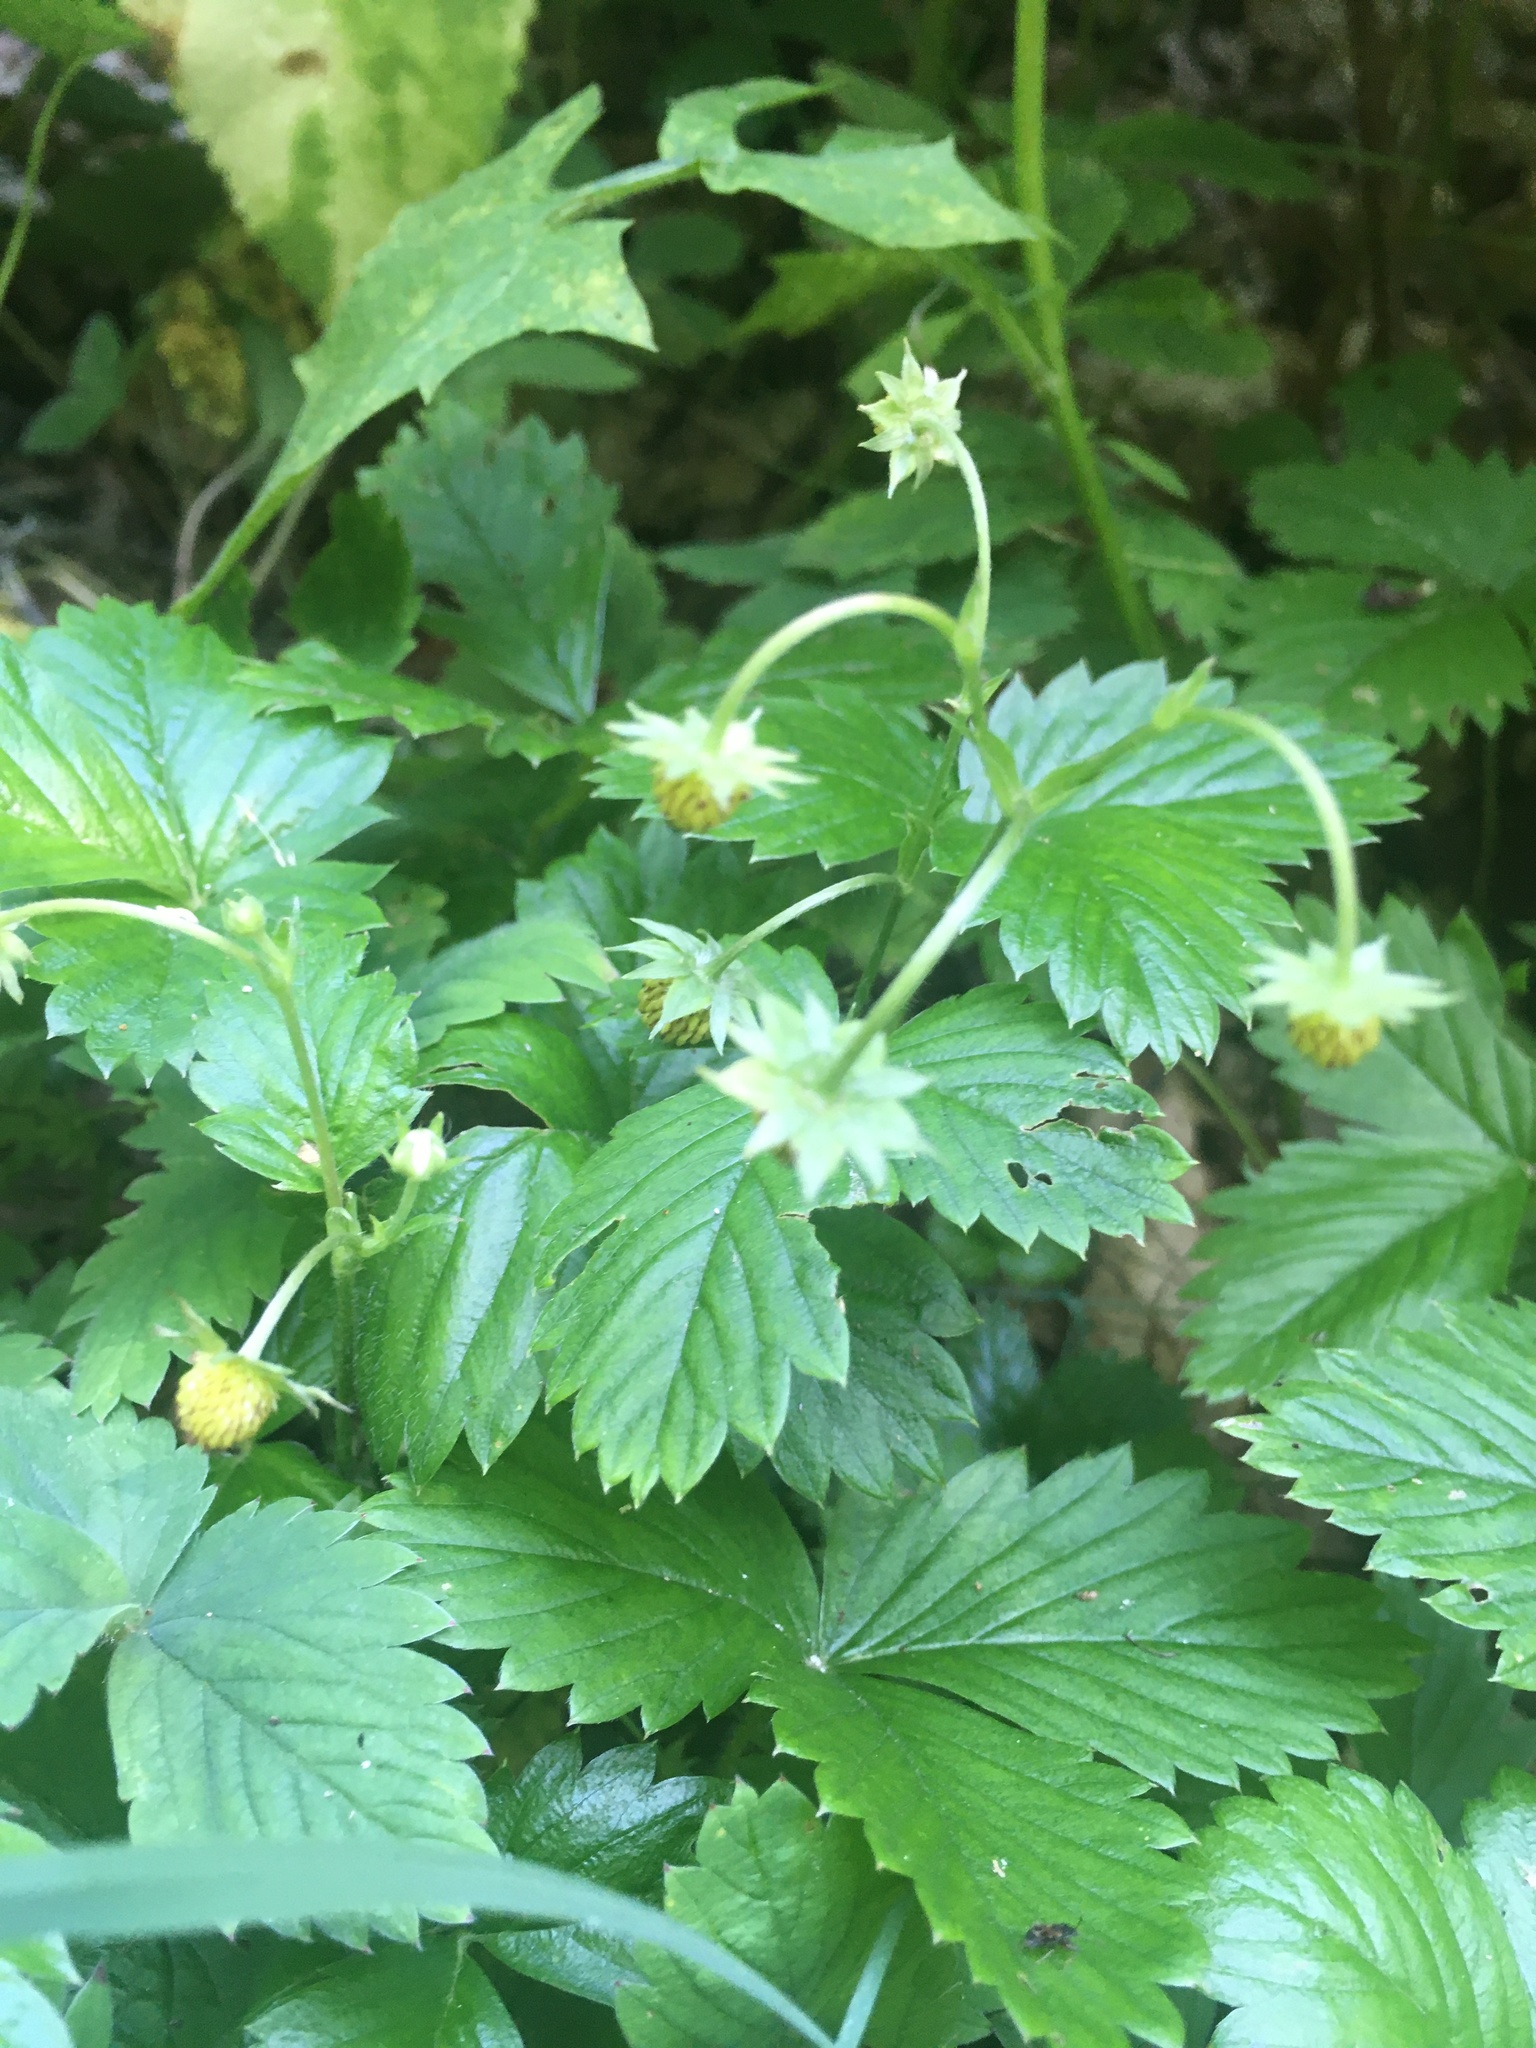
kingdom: Plantae
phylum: Tracheophyta
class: Magnoliopsida
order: Rosales
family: Rosaceae
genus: Fragaria
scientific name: Fragaria vesca
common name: Wild strawberry
